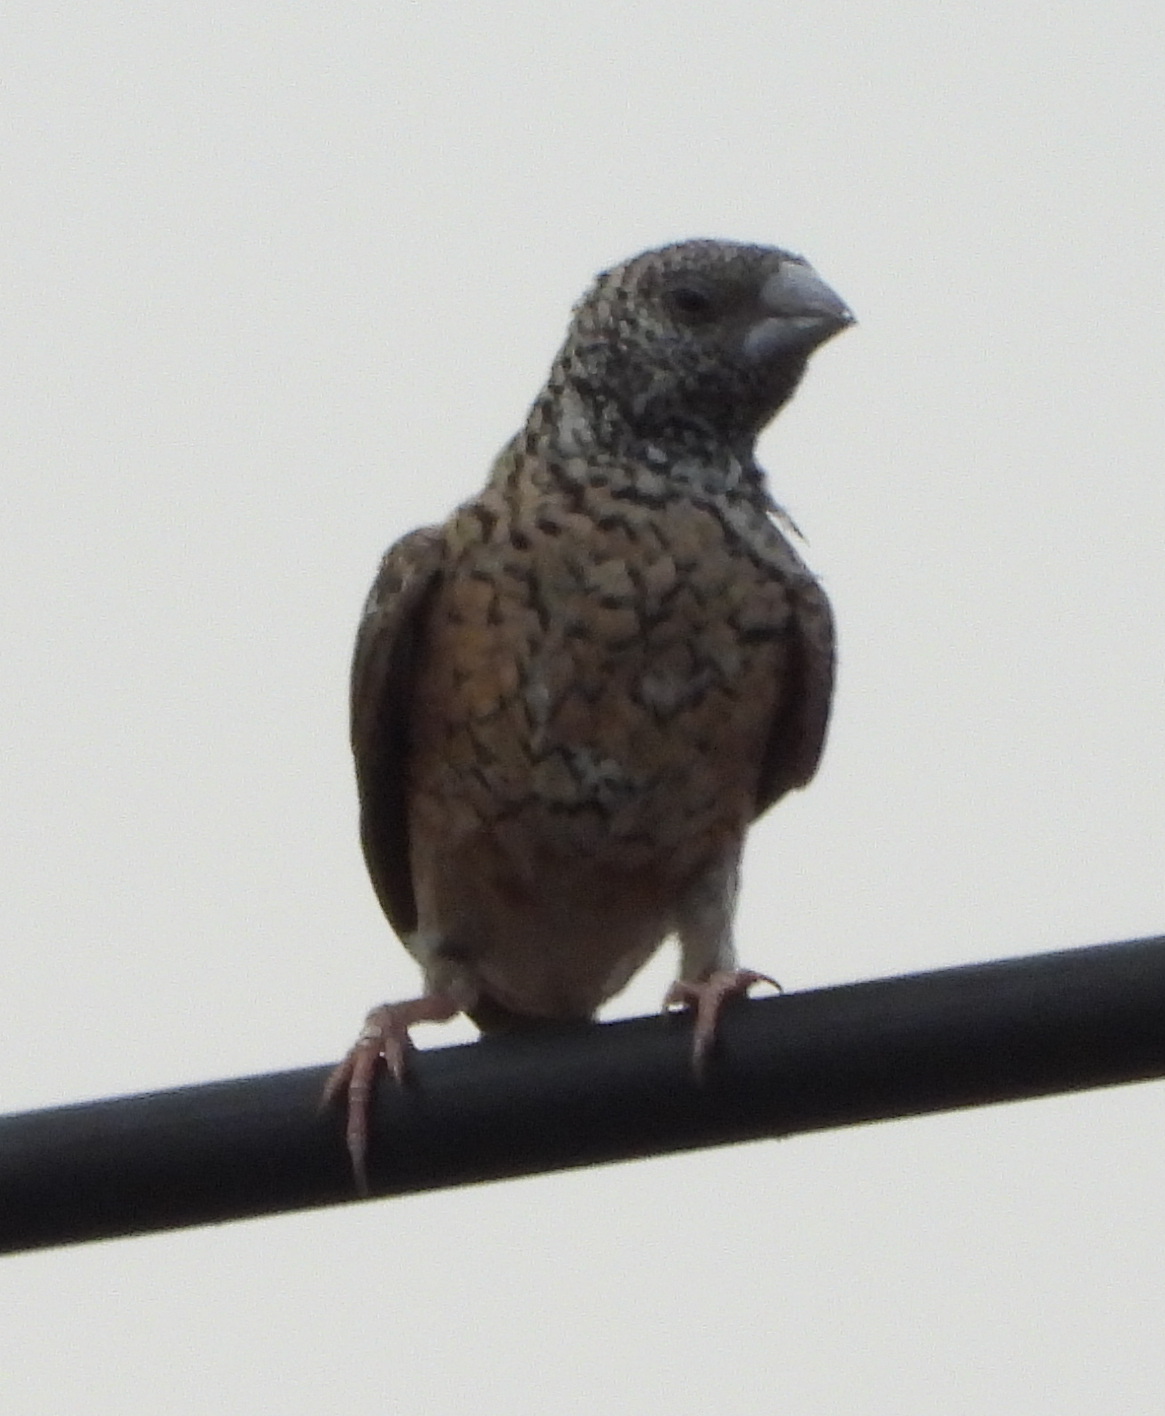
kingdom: Animalia
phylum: Chordata
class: Aves
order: Passeriformes
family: Estrildidae
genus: Amadina
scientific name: Amadina fasciata
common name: Cut-throat finch
